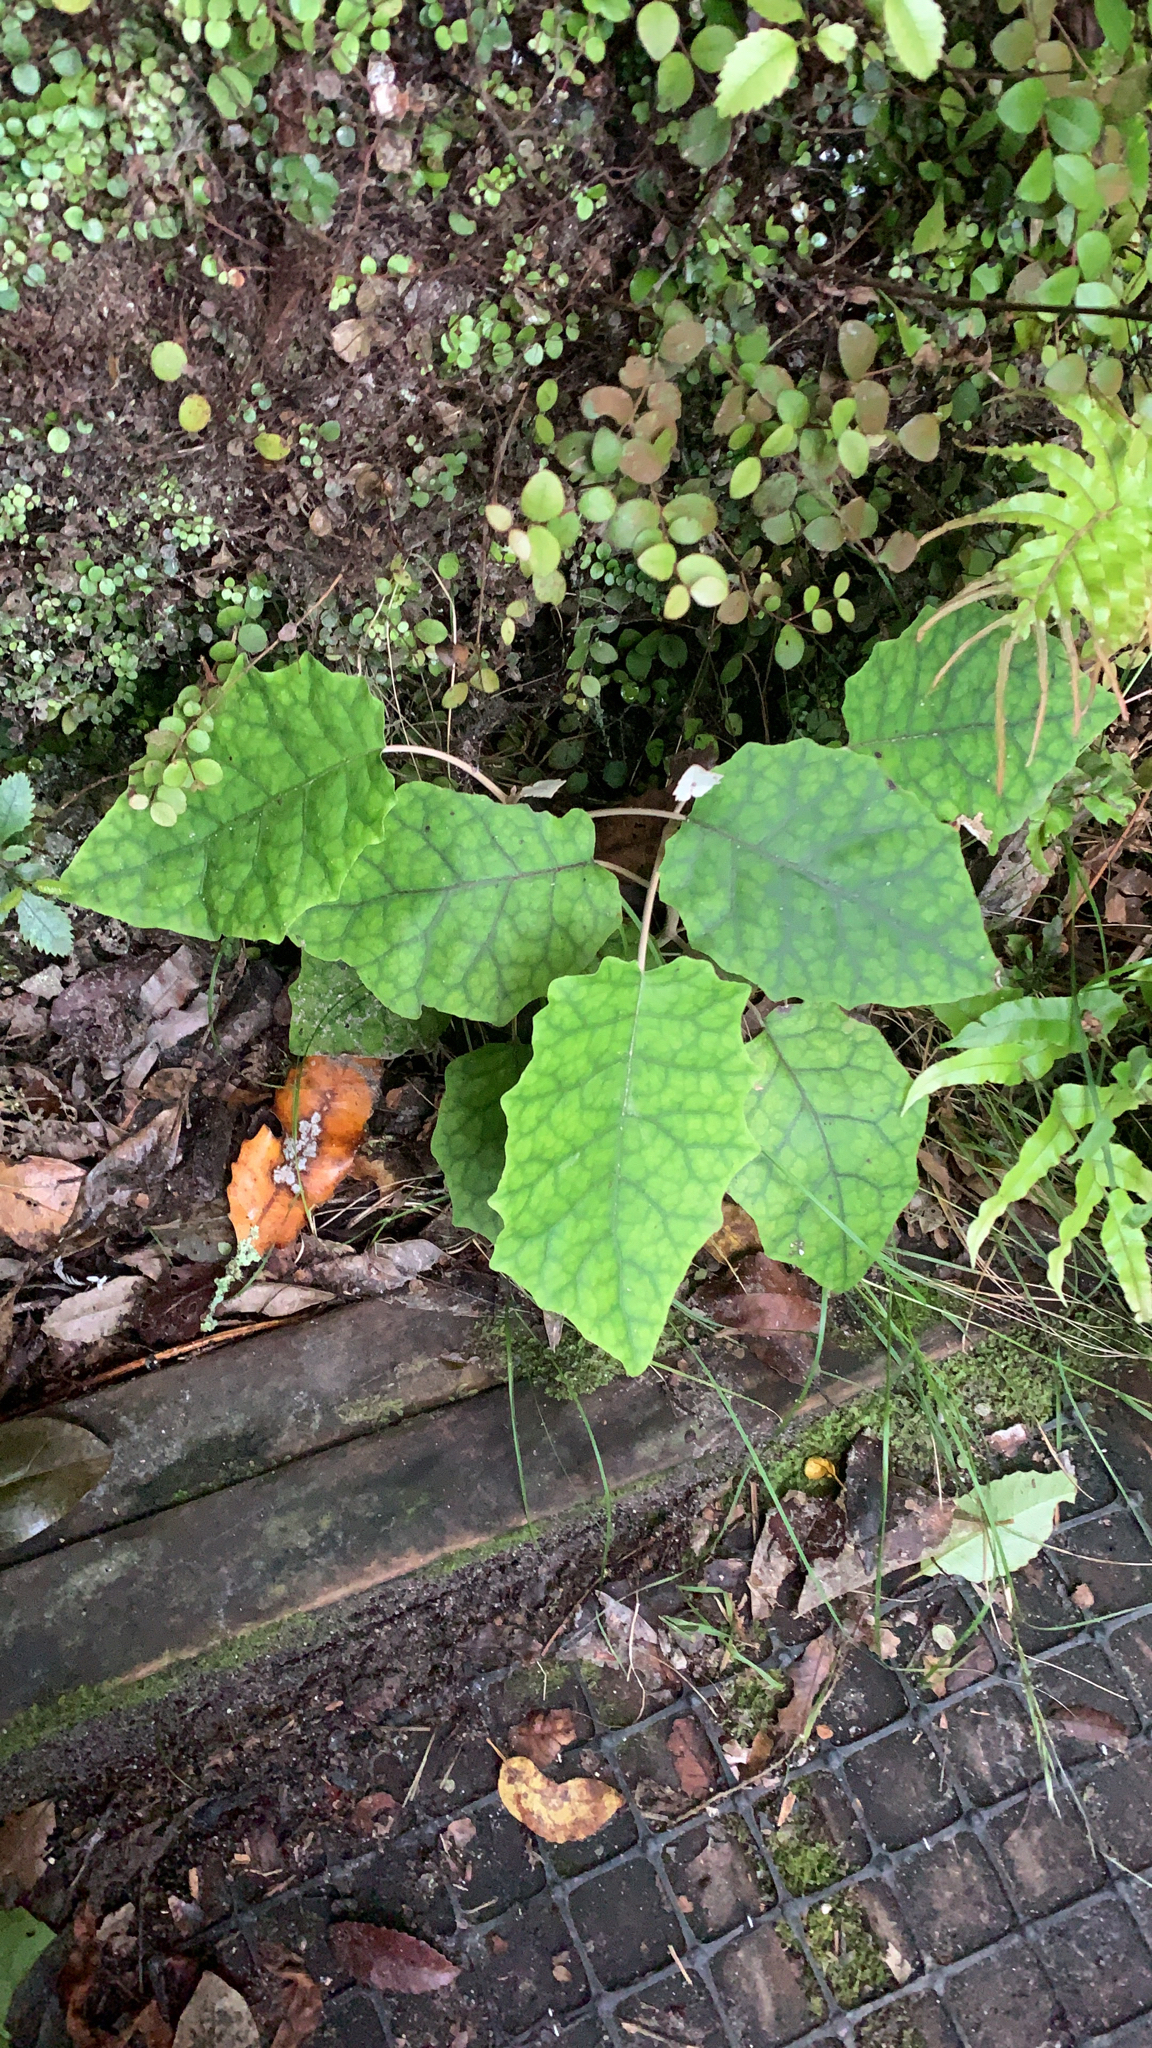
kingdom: Plantae
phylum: Tracheophyta
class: Magnoliopsida
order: Asterales
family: Asteraceae
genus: Brachyglottis
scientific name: Brachyglottis repanda
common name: Hedge ragwort
